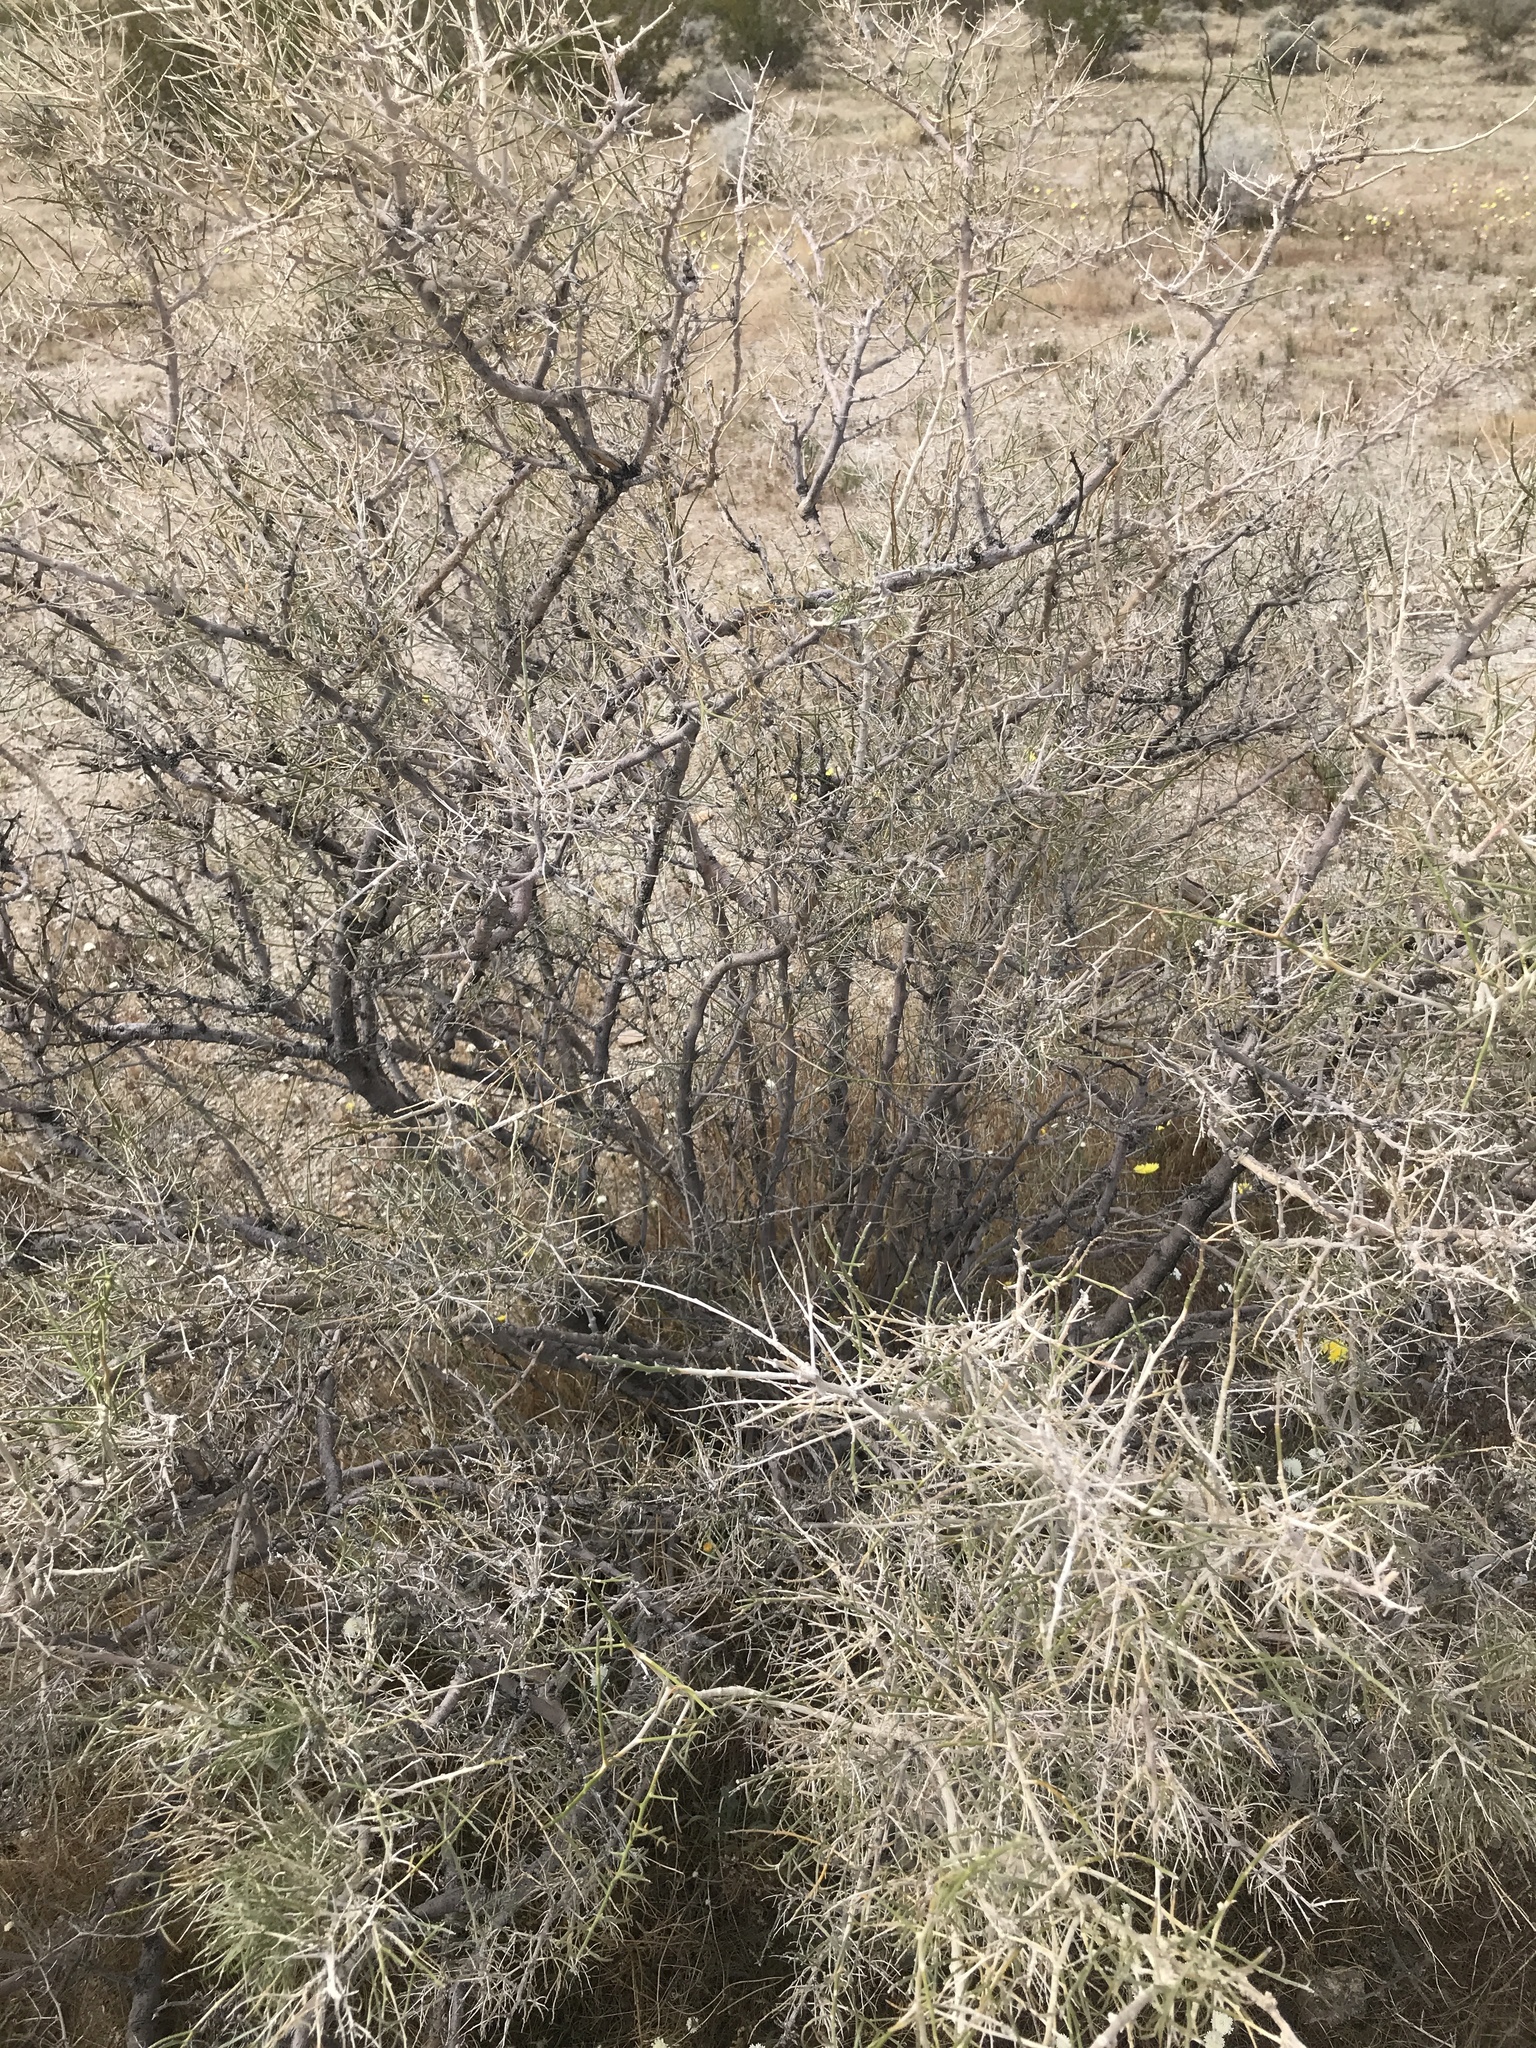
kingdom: Plantae
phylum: Tracheophyta
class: Magnoliopsida
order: Fabales
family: Fabaceae
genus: Psorothamnus
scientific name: Psorothamnus schottii
